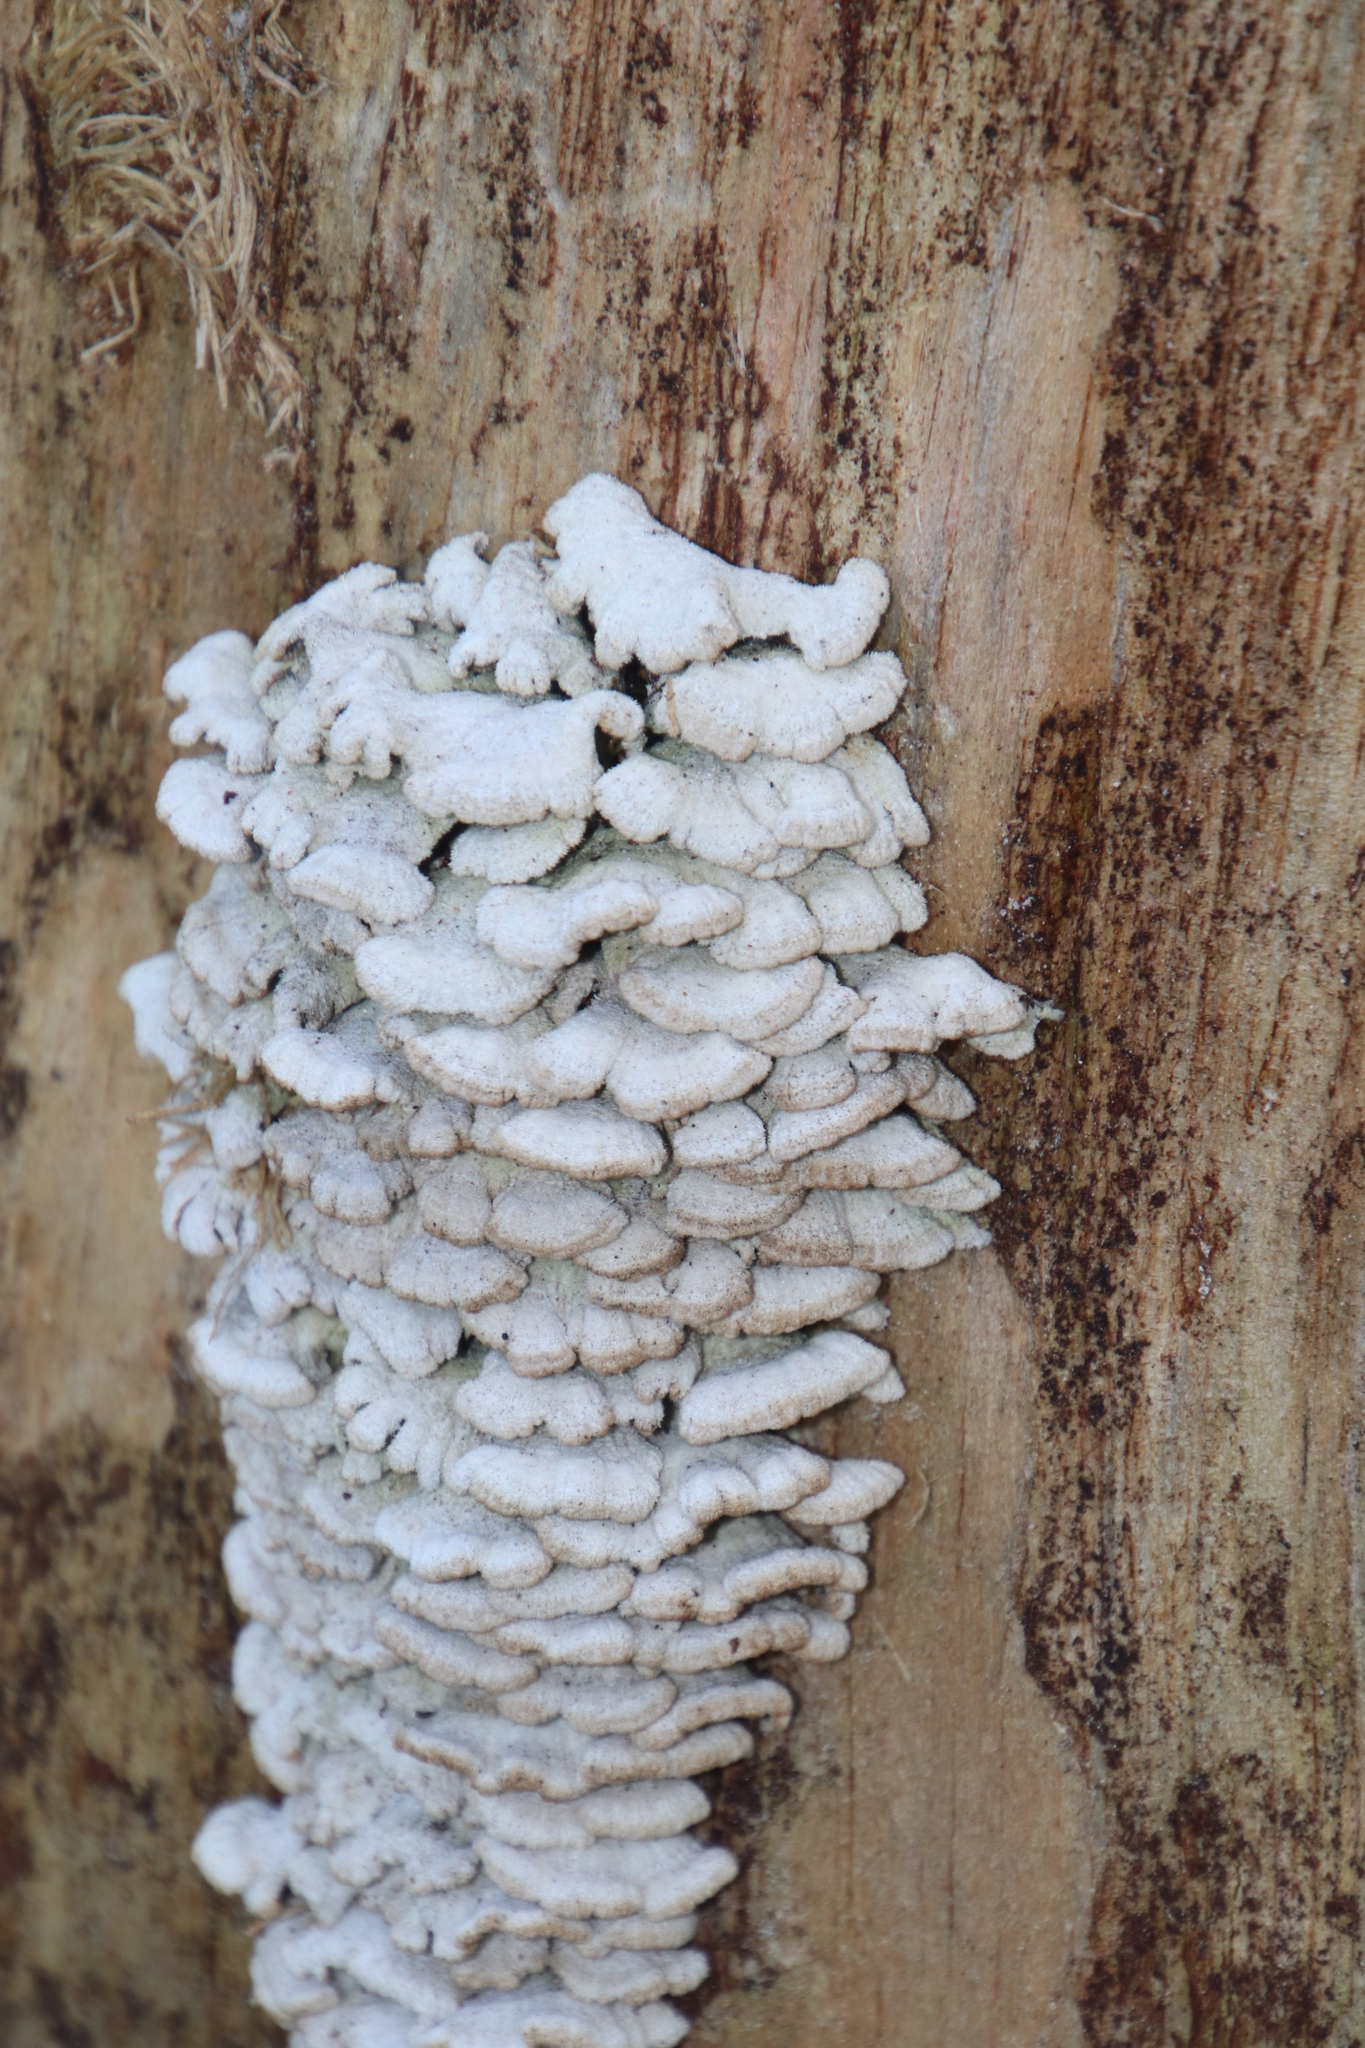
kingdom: Fungi
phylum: Basidiomycota
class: Agaricomycetes
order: Agaricales
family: Schizophyllaceae
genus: Schizophyllum
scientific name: Schizophyllum commune
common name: Common porecrust
